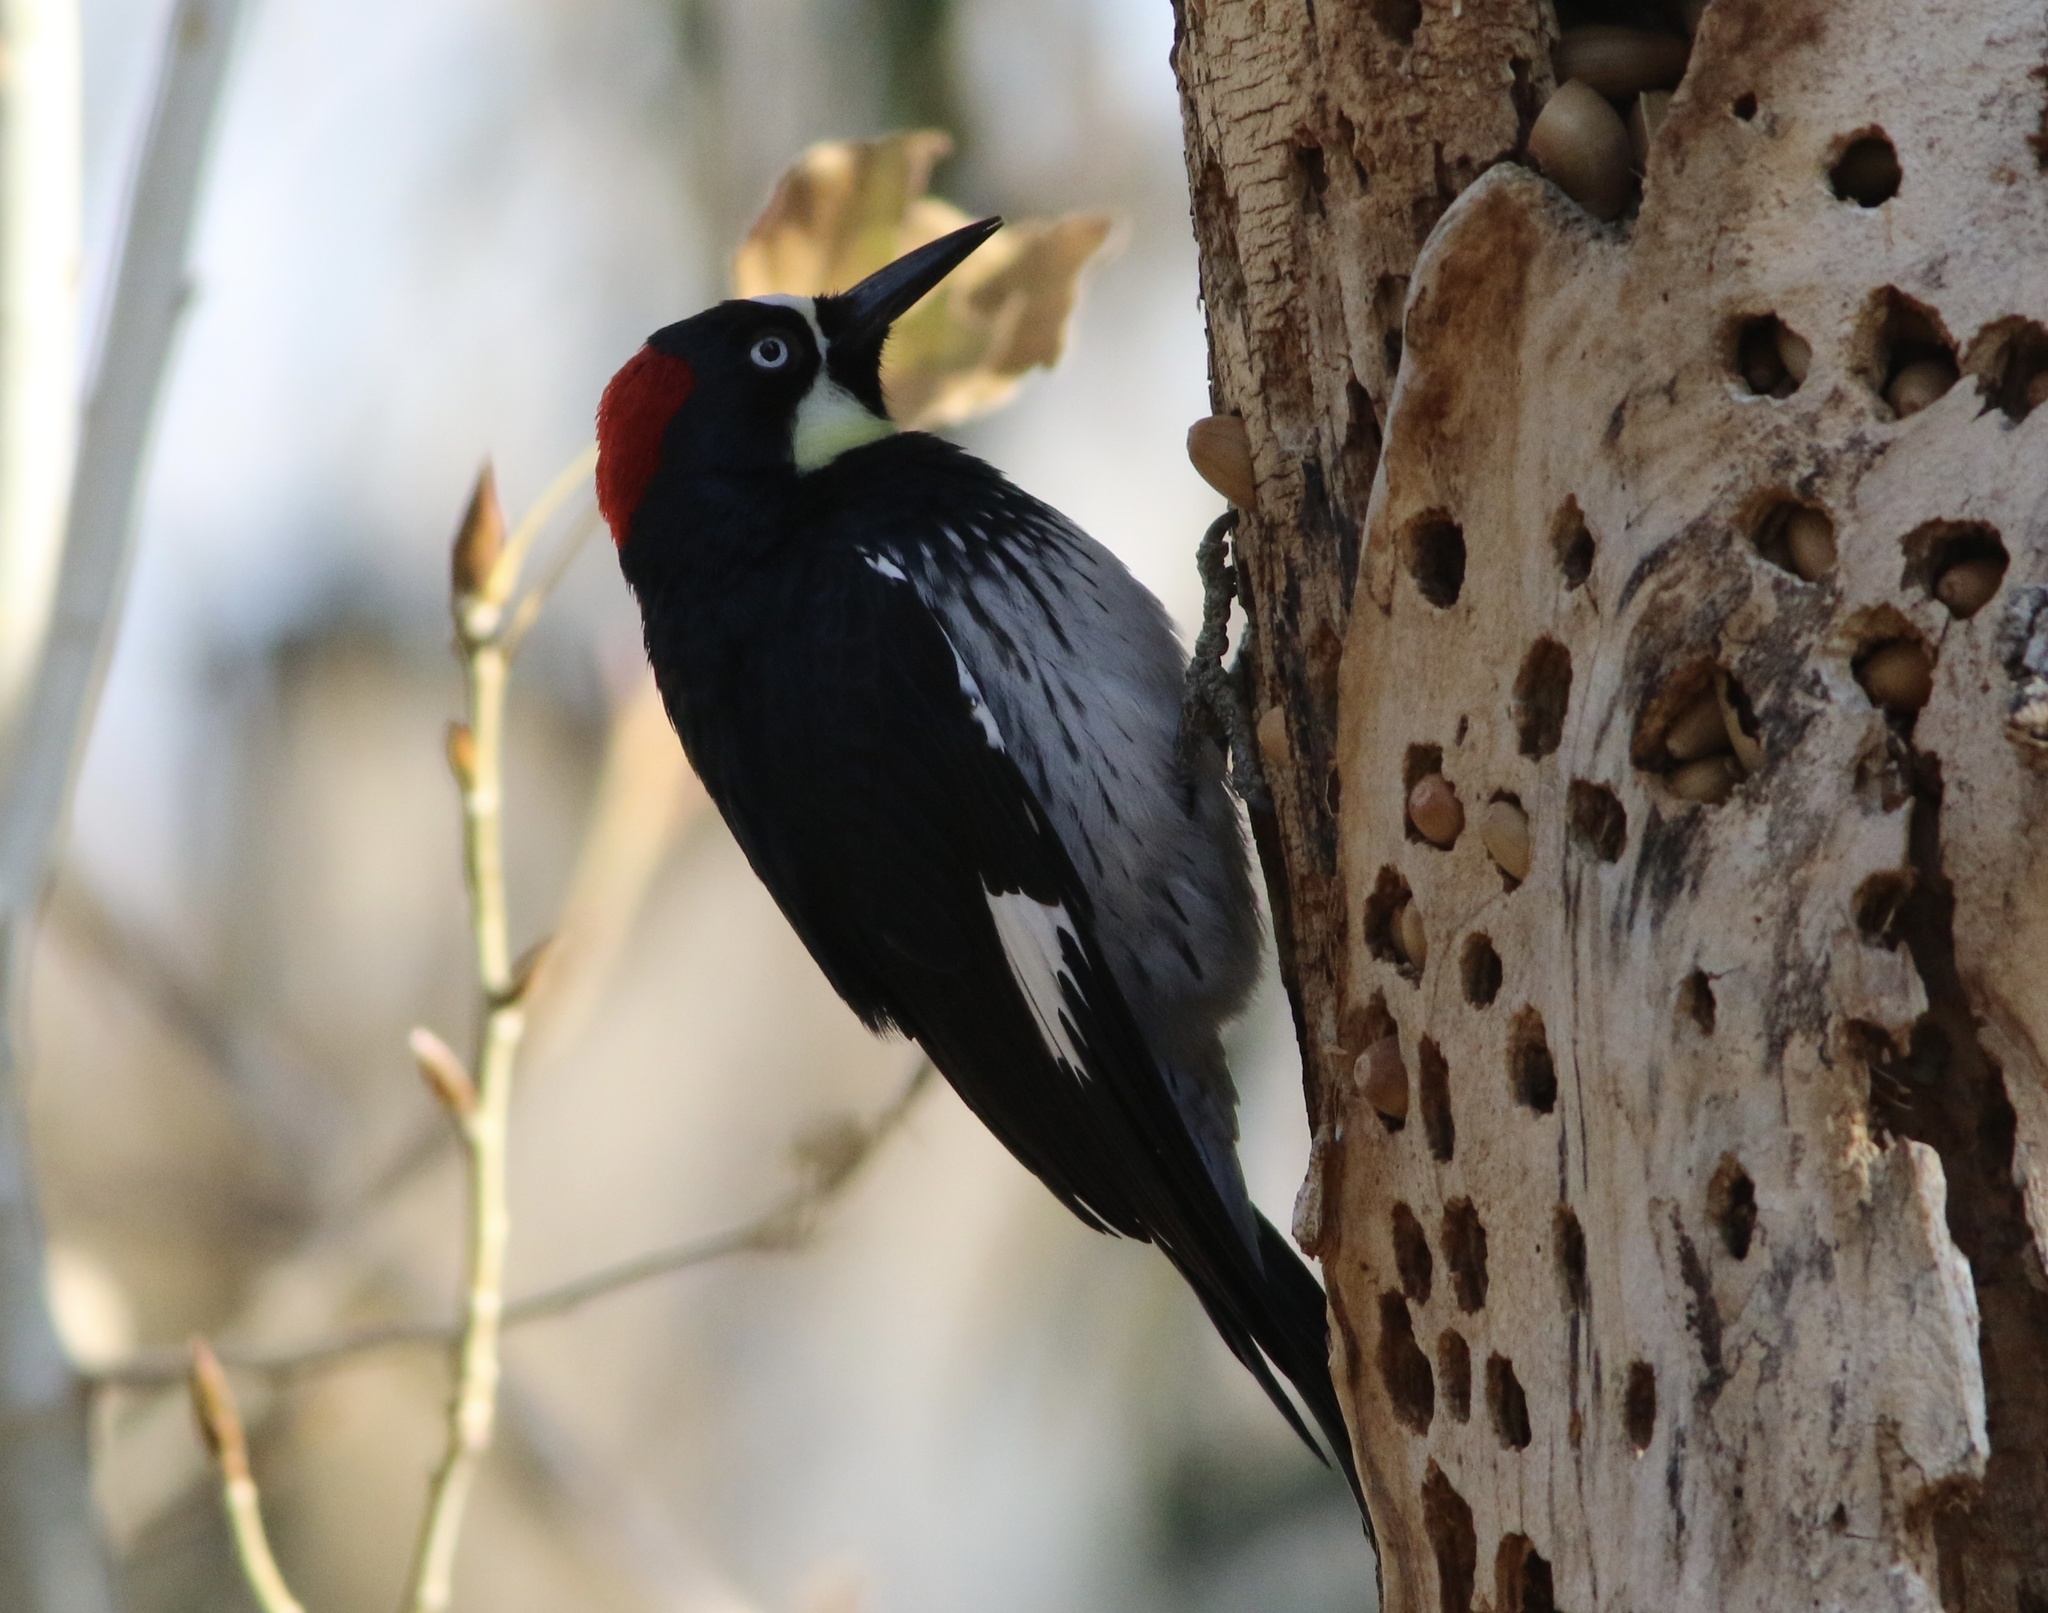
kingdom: Animalia
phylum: Chordata
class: Aves
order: Piciformes
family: Picidae
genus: Melanerpes
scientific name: Melanerpes formicivorus
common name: Acorn woodpecker
